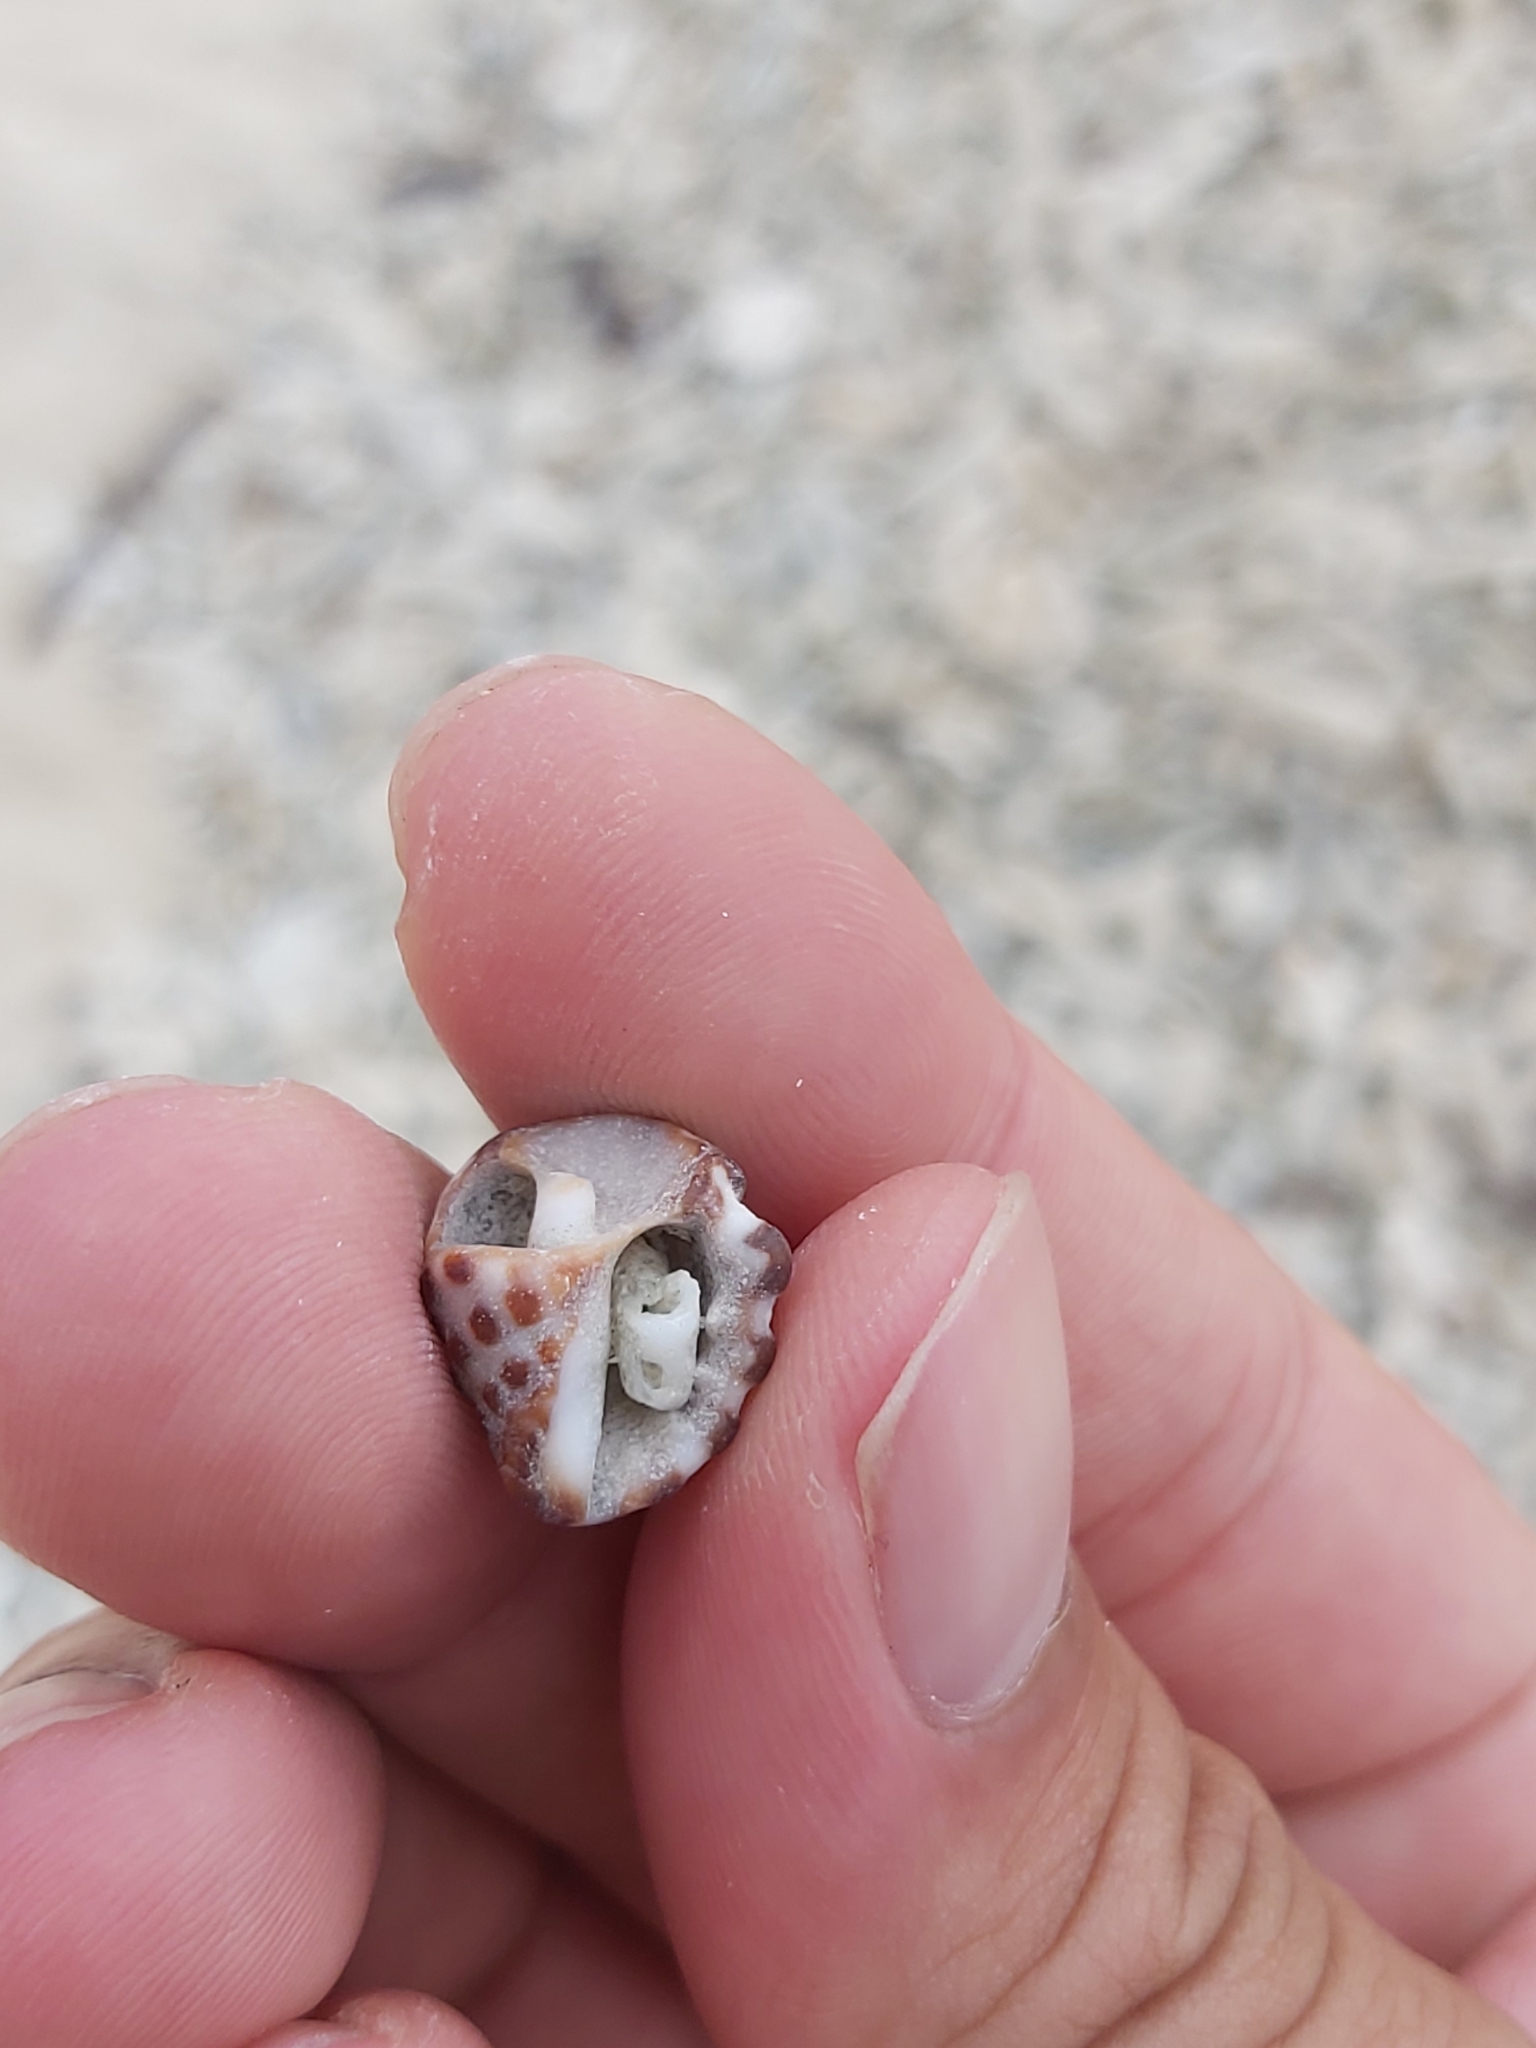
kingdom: Animalia
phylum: Mollusca
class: Gastropoda
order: Neogastropoda
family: Muricidae
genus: Tenguella
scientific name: Tenguella marginalba
